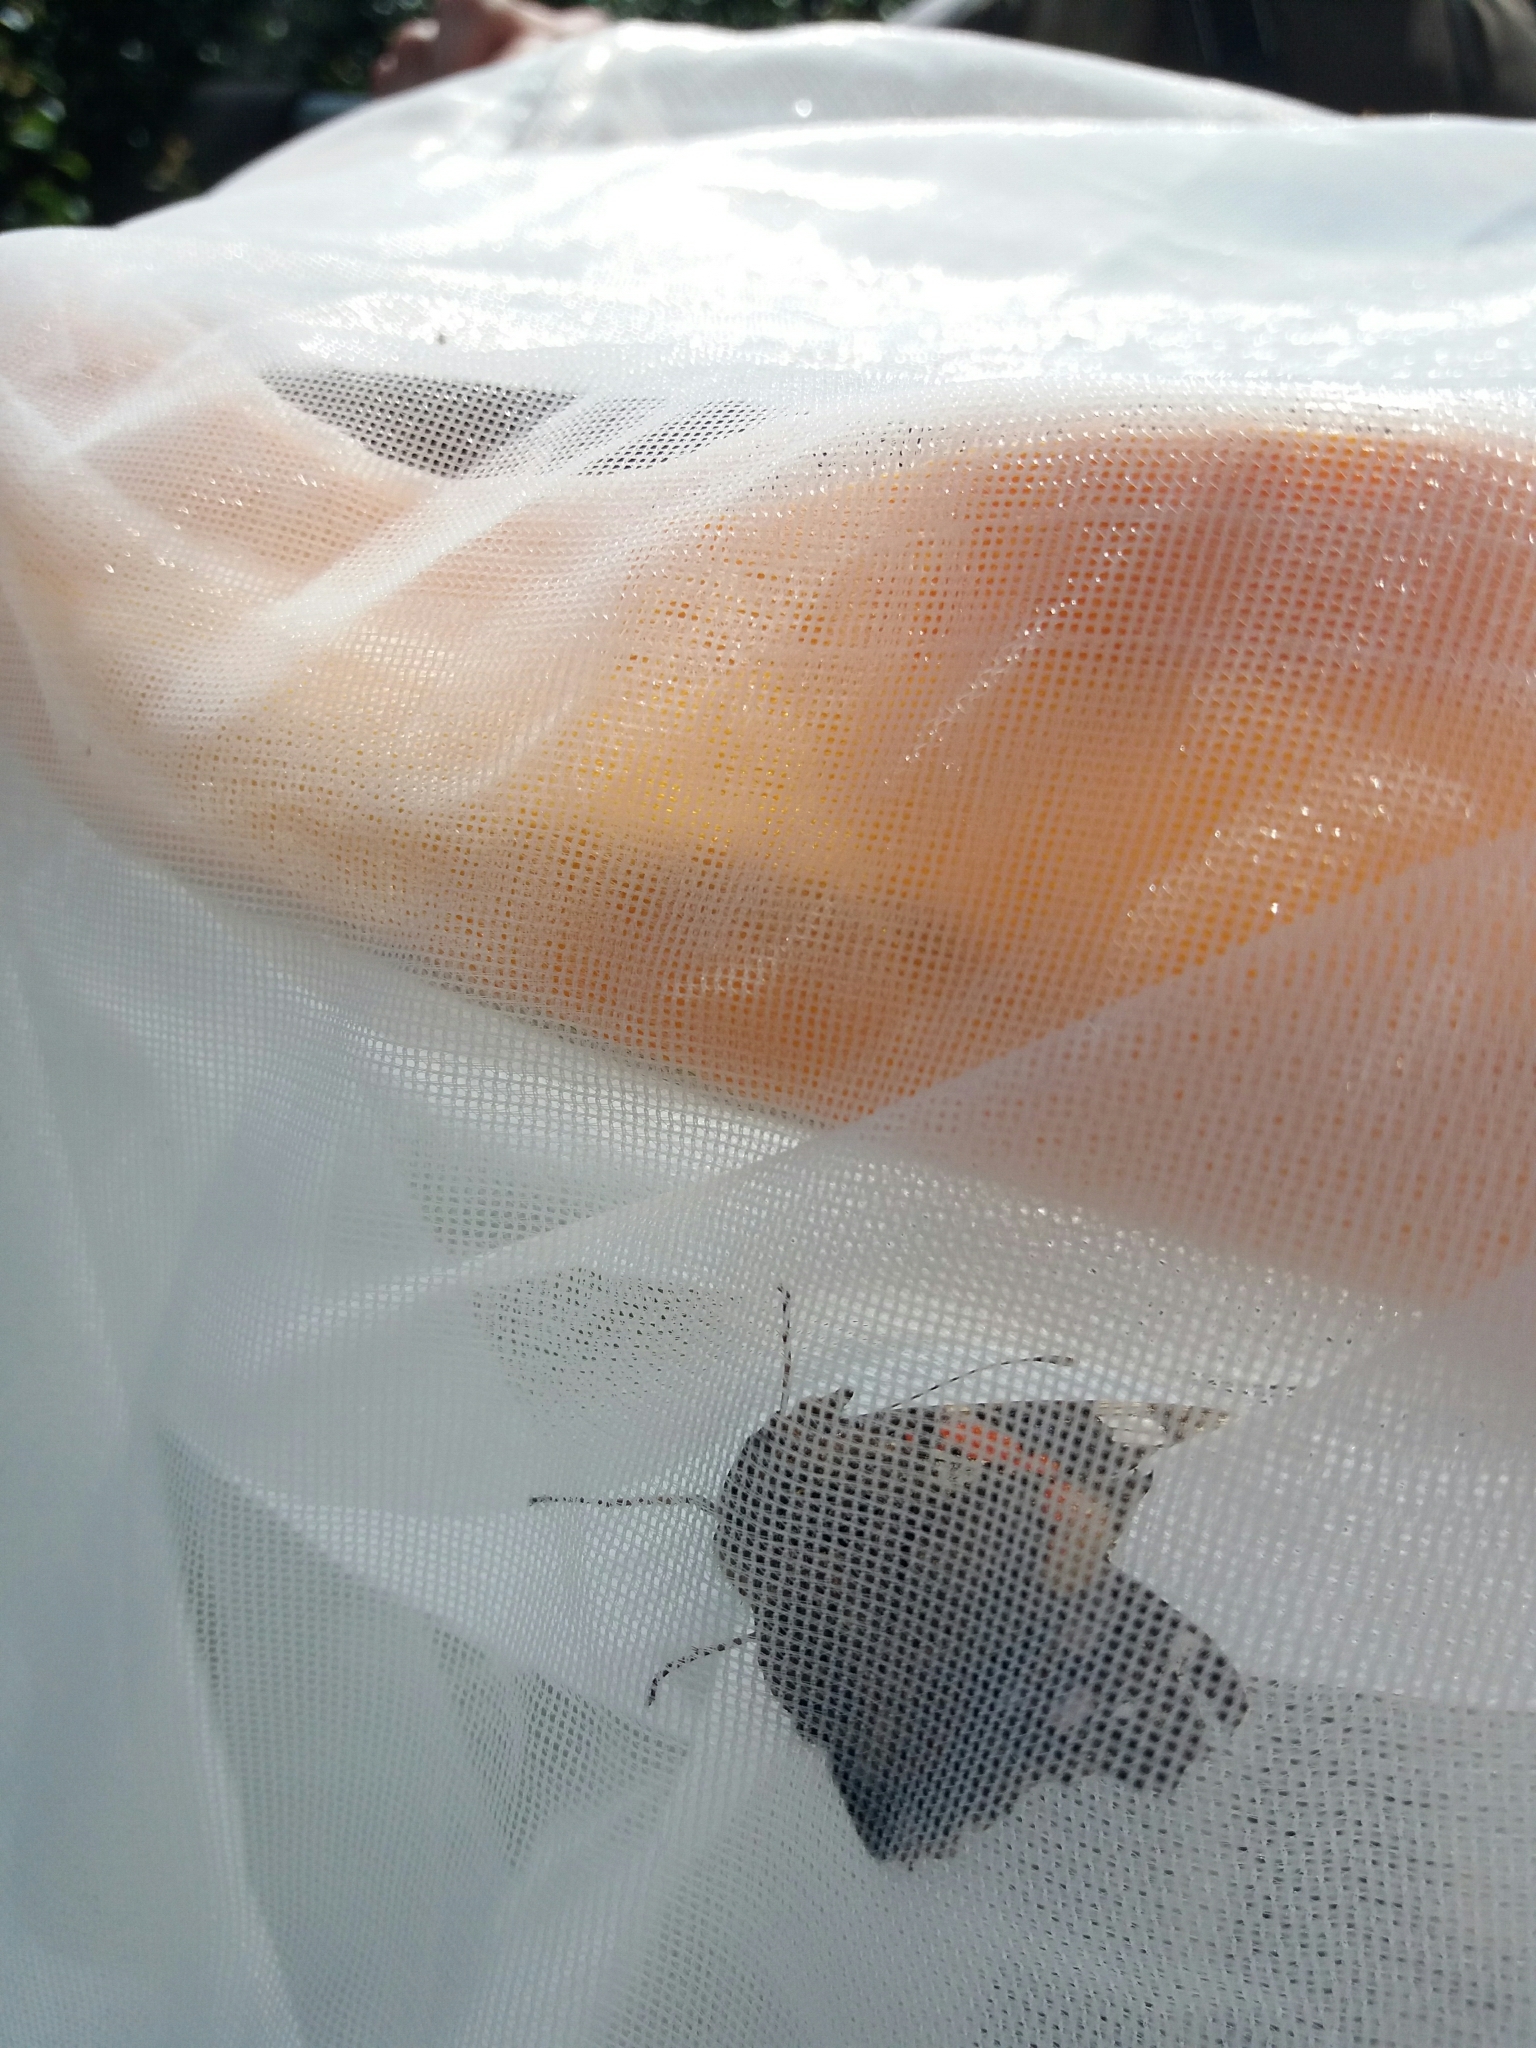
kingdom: Animalia
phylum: Arthropoda
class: Insecta
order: Lepidoptera
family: Nymphalidae
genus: Vanessa
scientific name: Vanessa atalanta
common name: Red admiral
